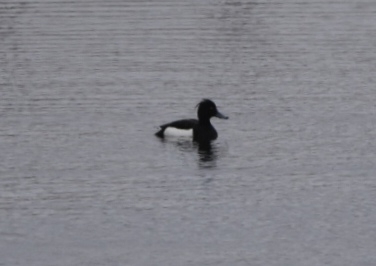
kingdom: Animalia
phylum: Chordata
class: Aves
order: Anseriformes
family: Anatidae
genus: Aythya
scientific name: Aythya fuligula
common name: Tufted duck
